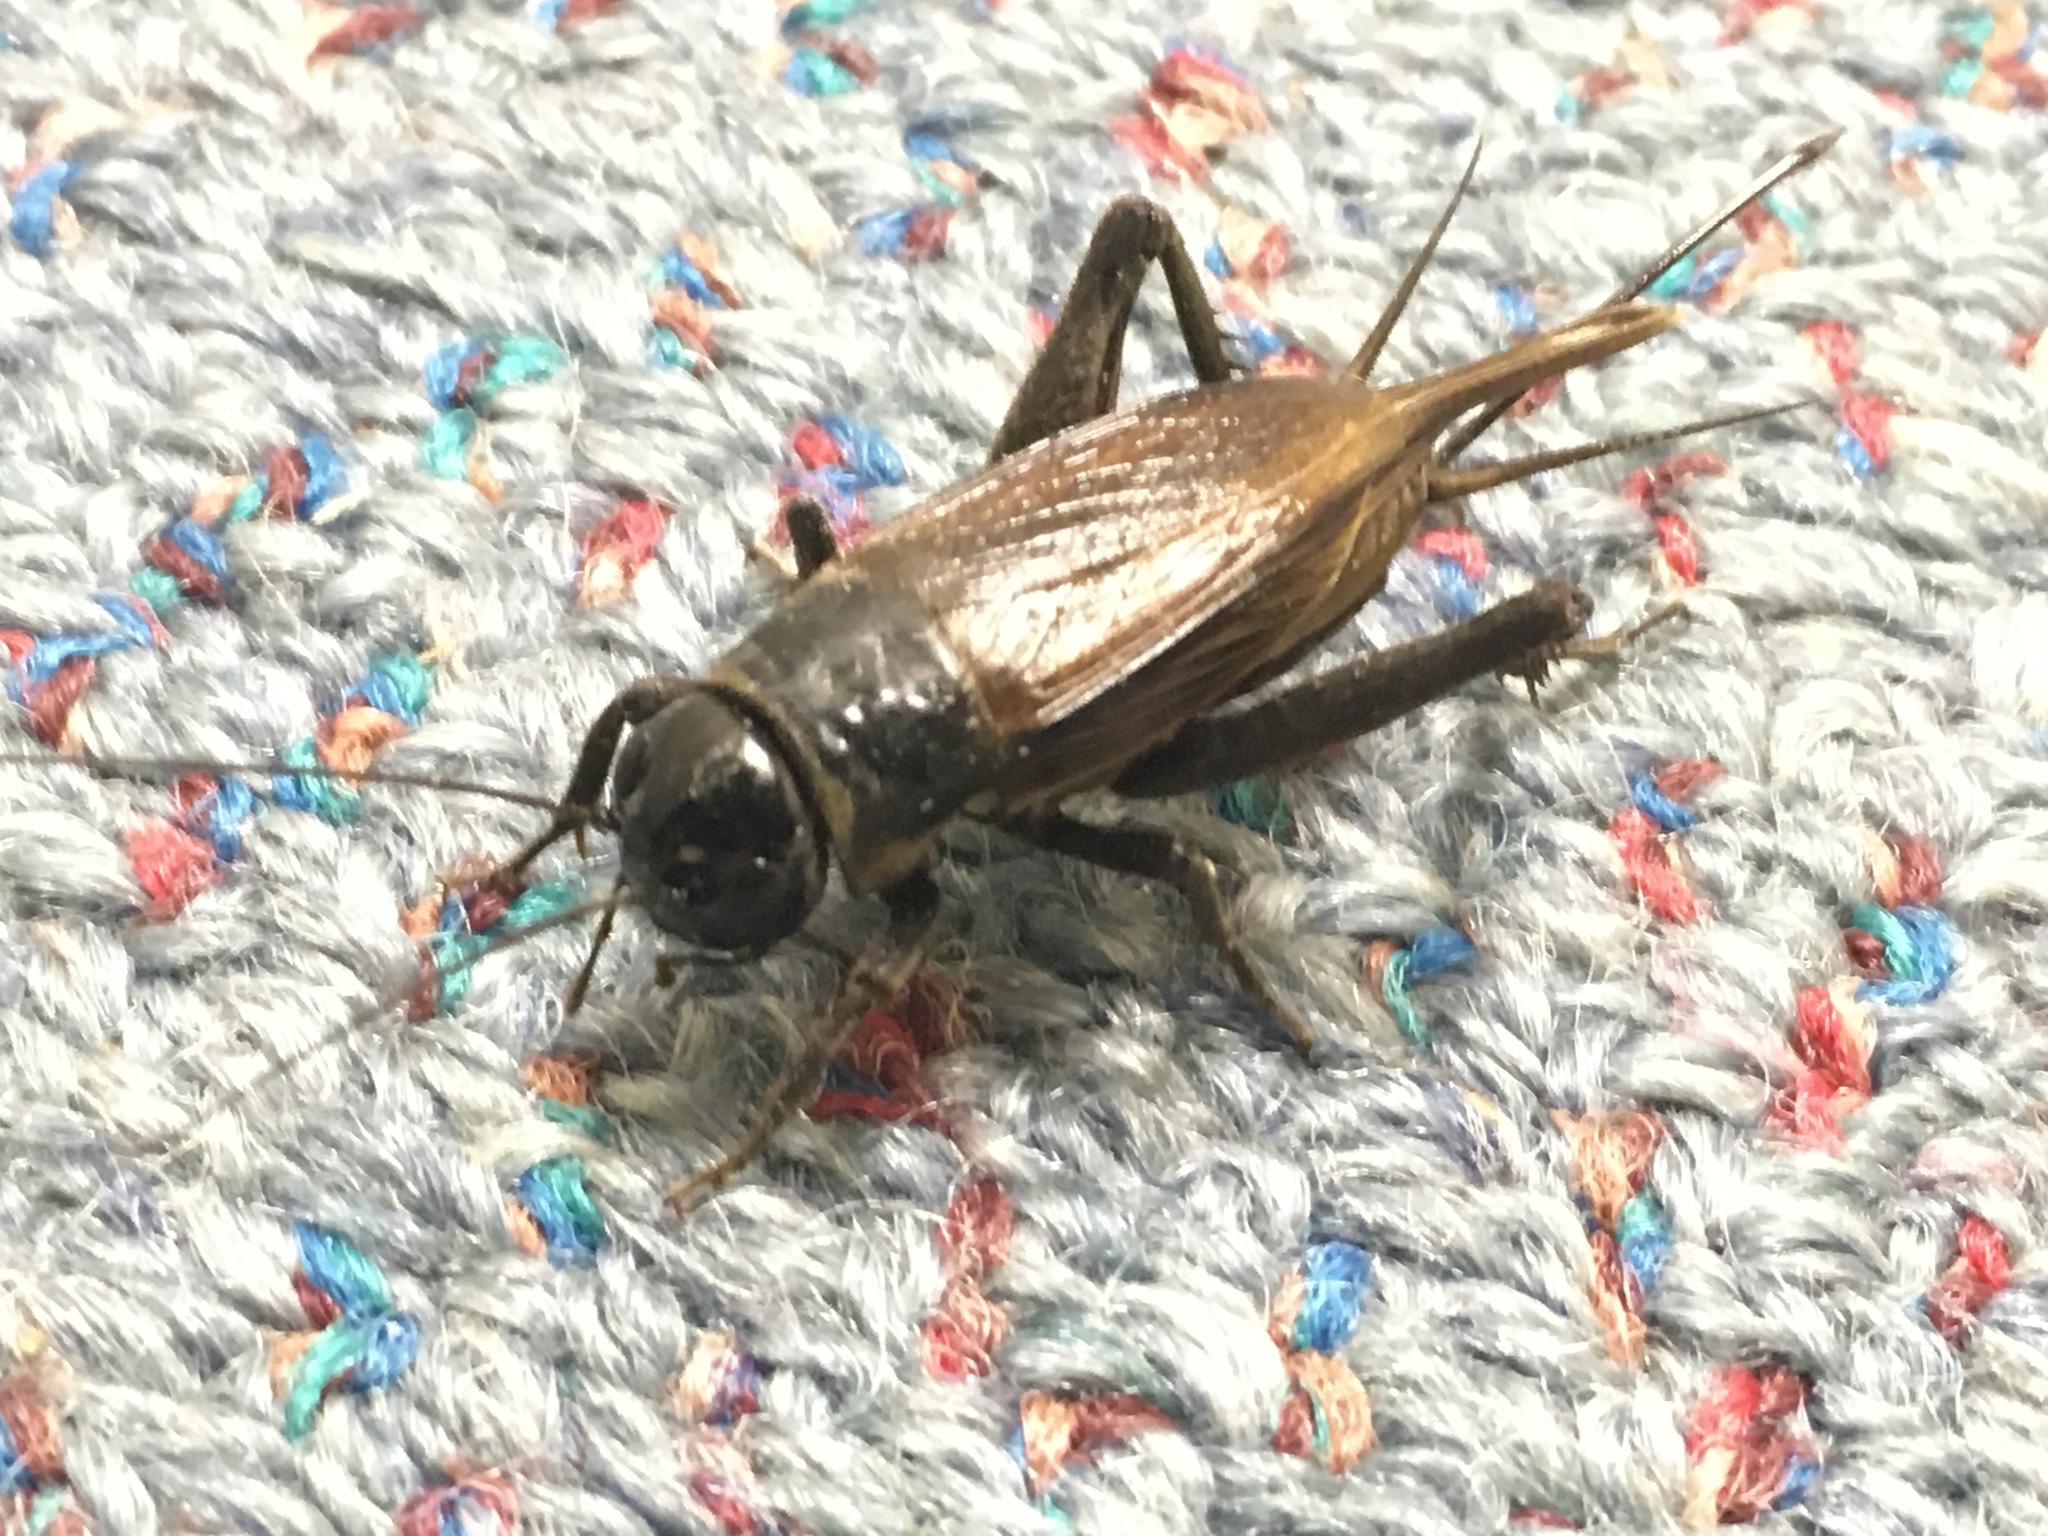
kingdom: Animalia
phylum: Arthropoda
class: Insecta
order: Orthoptera
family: Gryllidae
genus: Teleogryllus
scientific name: Teleogryllus commodus
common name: Black field cricket
